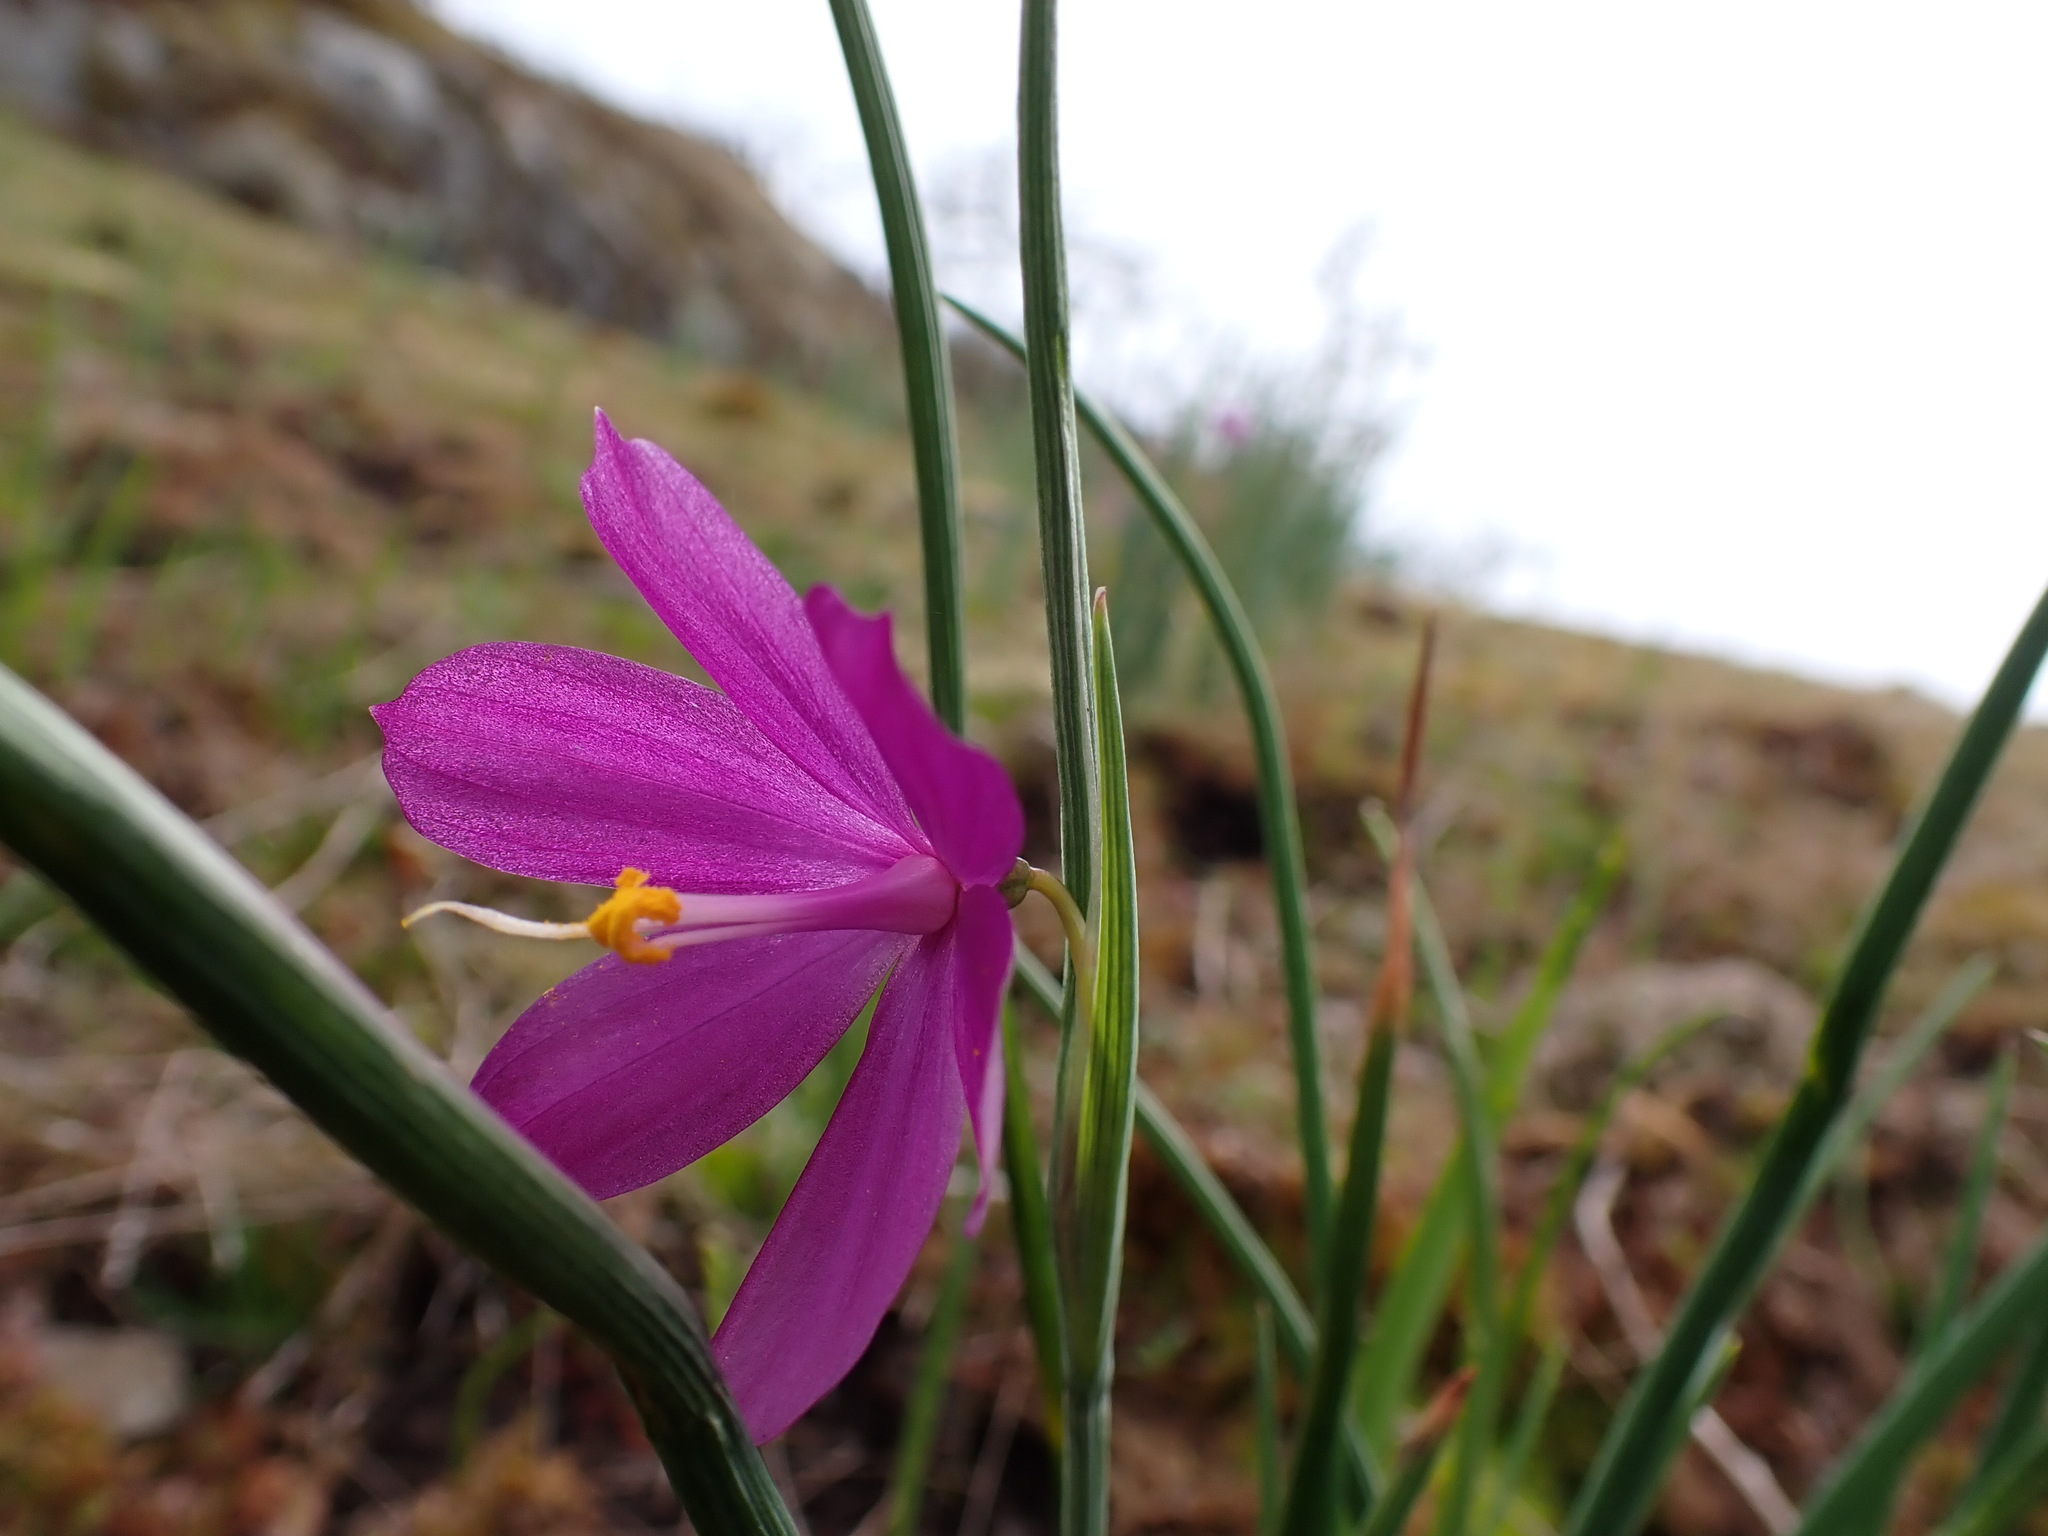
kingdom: Plantae
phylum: Tracheophyta
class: Liliopsida
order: Asparagales
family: Iridaceae
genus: Olsynium
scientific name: Olsynium douglasii
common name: Douglas' grasswidow
